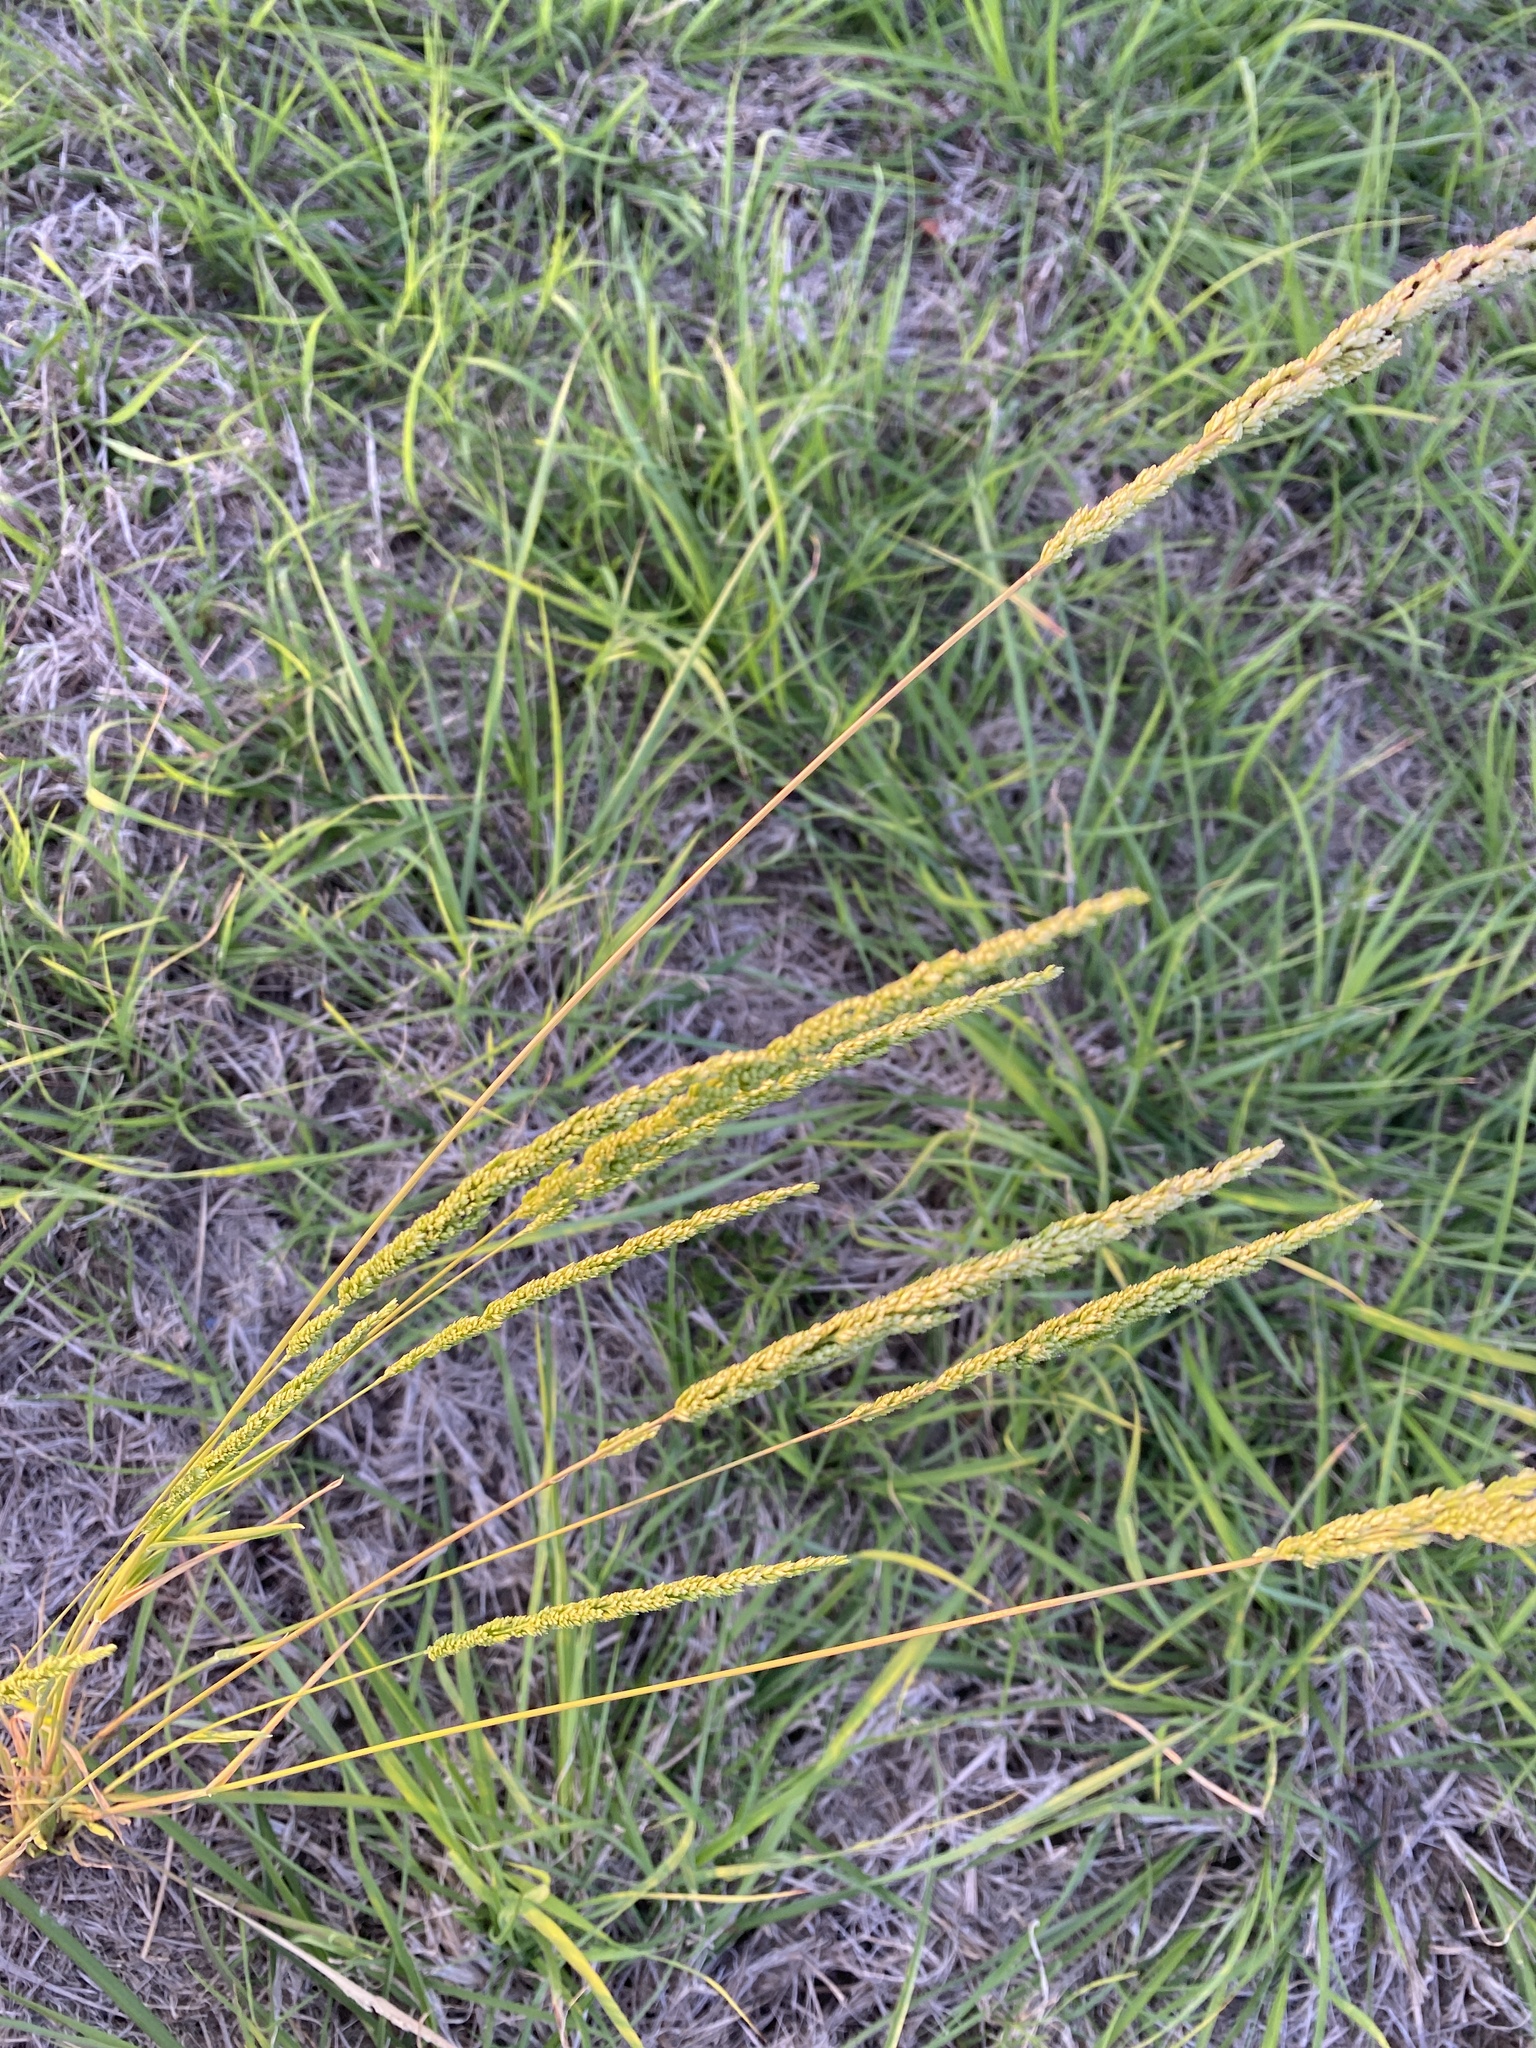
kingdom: Plantae
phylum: Tracheophyta
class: Liliopsida
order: Poales
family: Poaceae
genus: Sphenopholis
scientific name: Sphenopholis obtusata
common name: Prairie grass
